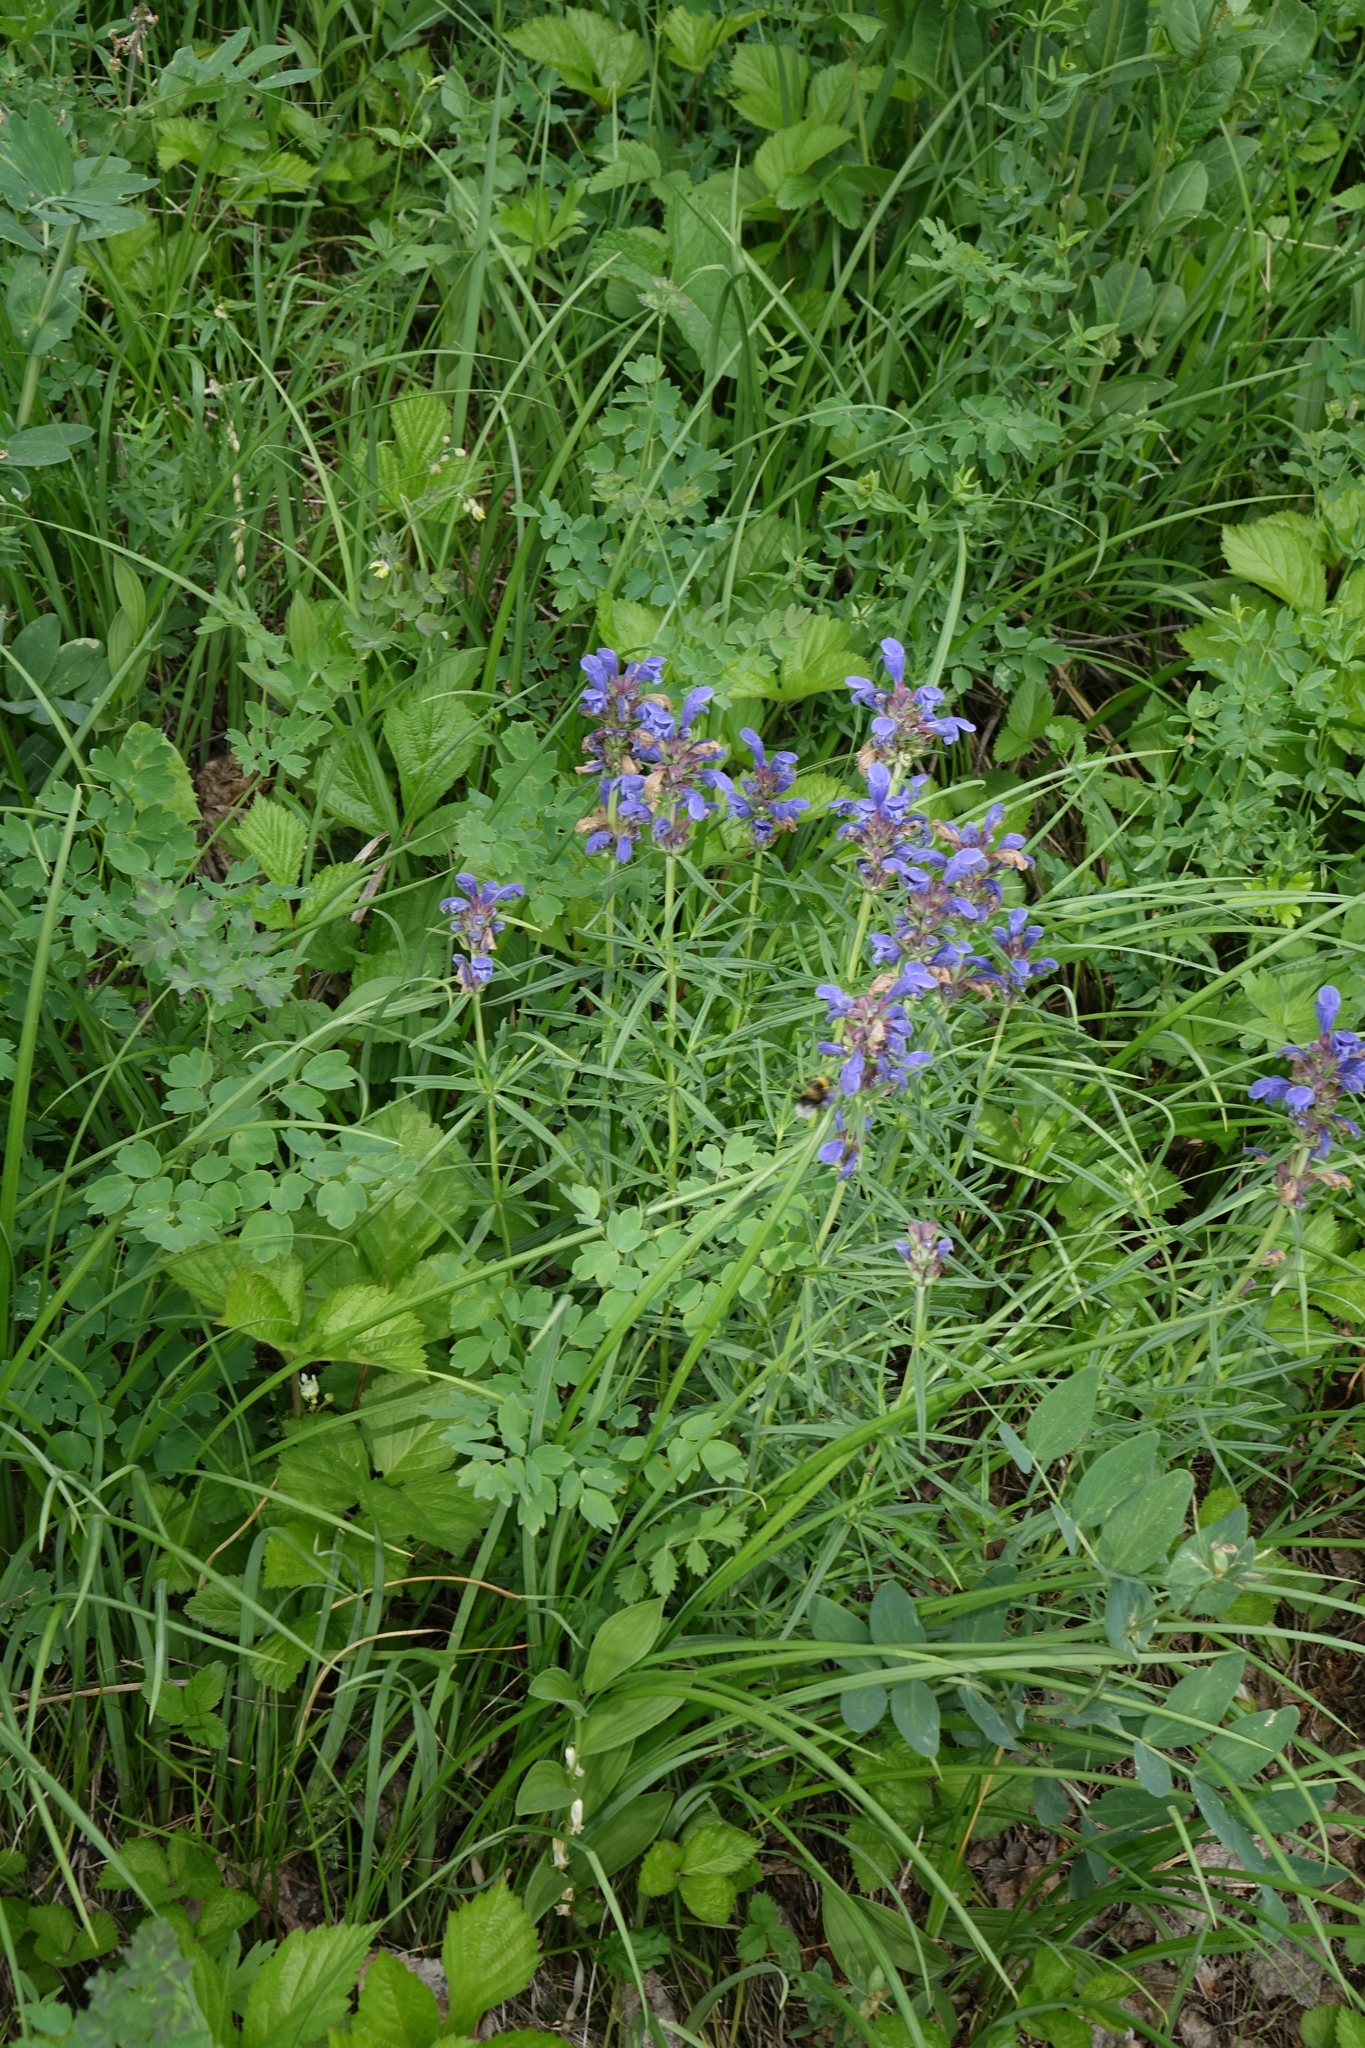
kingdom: Plantae
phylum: Tracheophyta
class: Magnoliopsida
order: Lamiales
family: Lamiaceae
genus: Dracocephalum
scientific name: Dracocephalum ruyschiana
